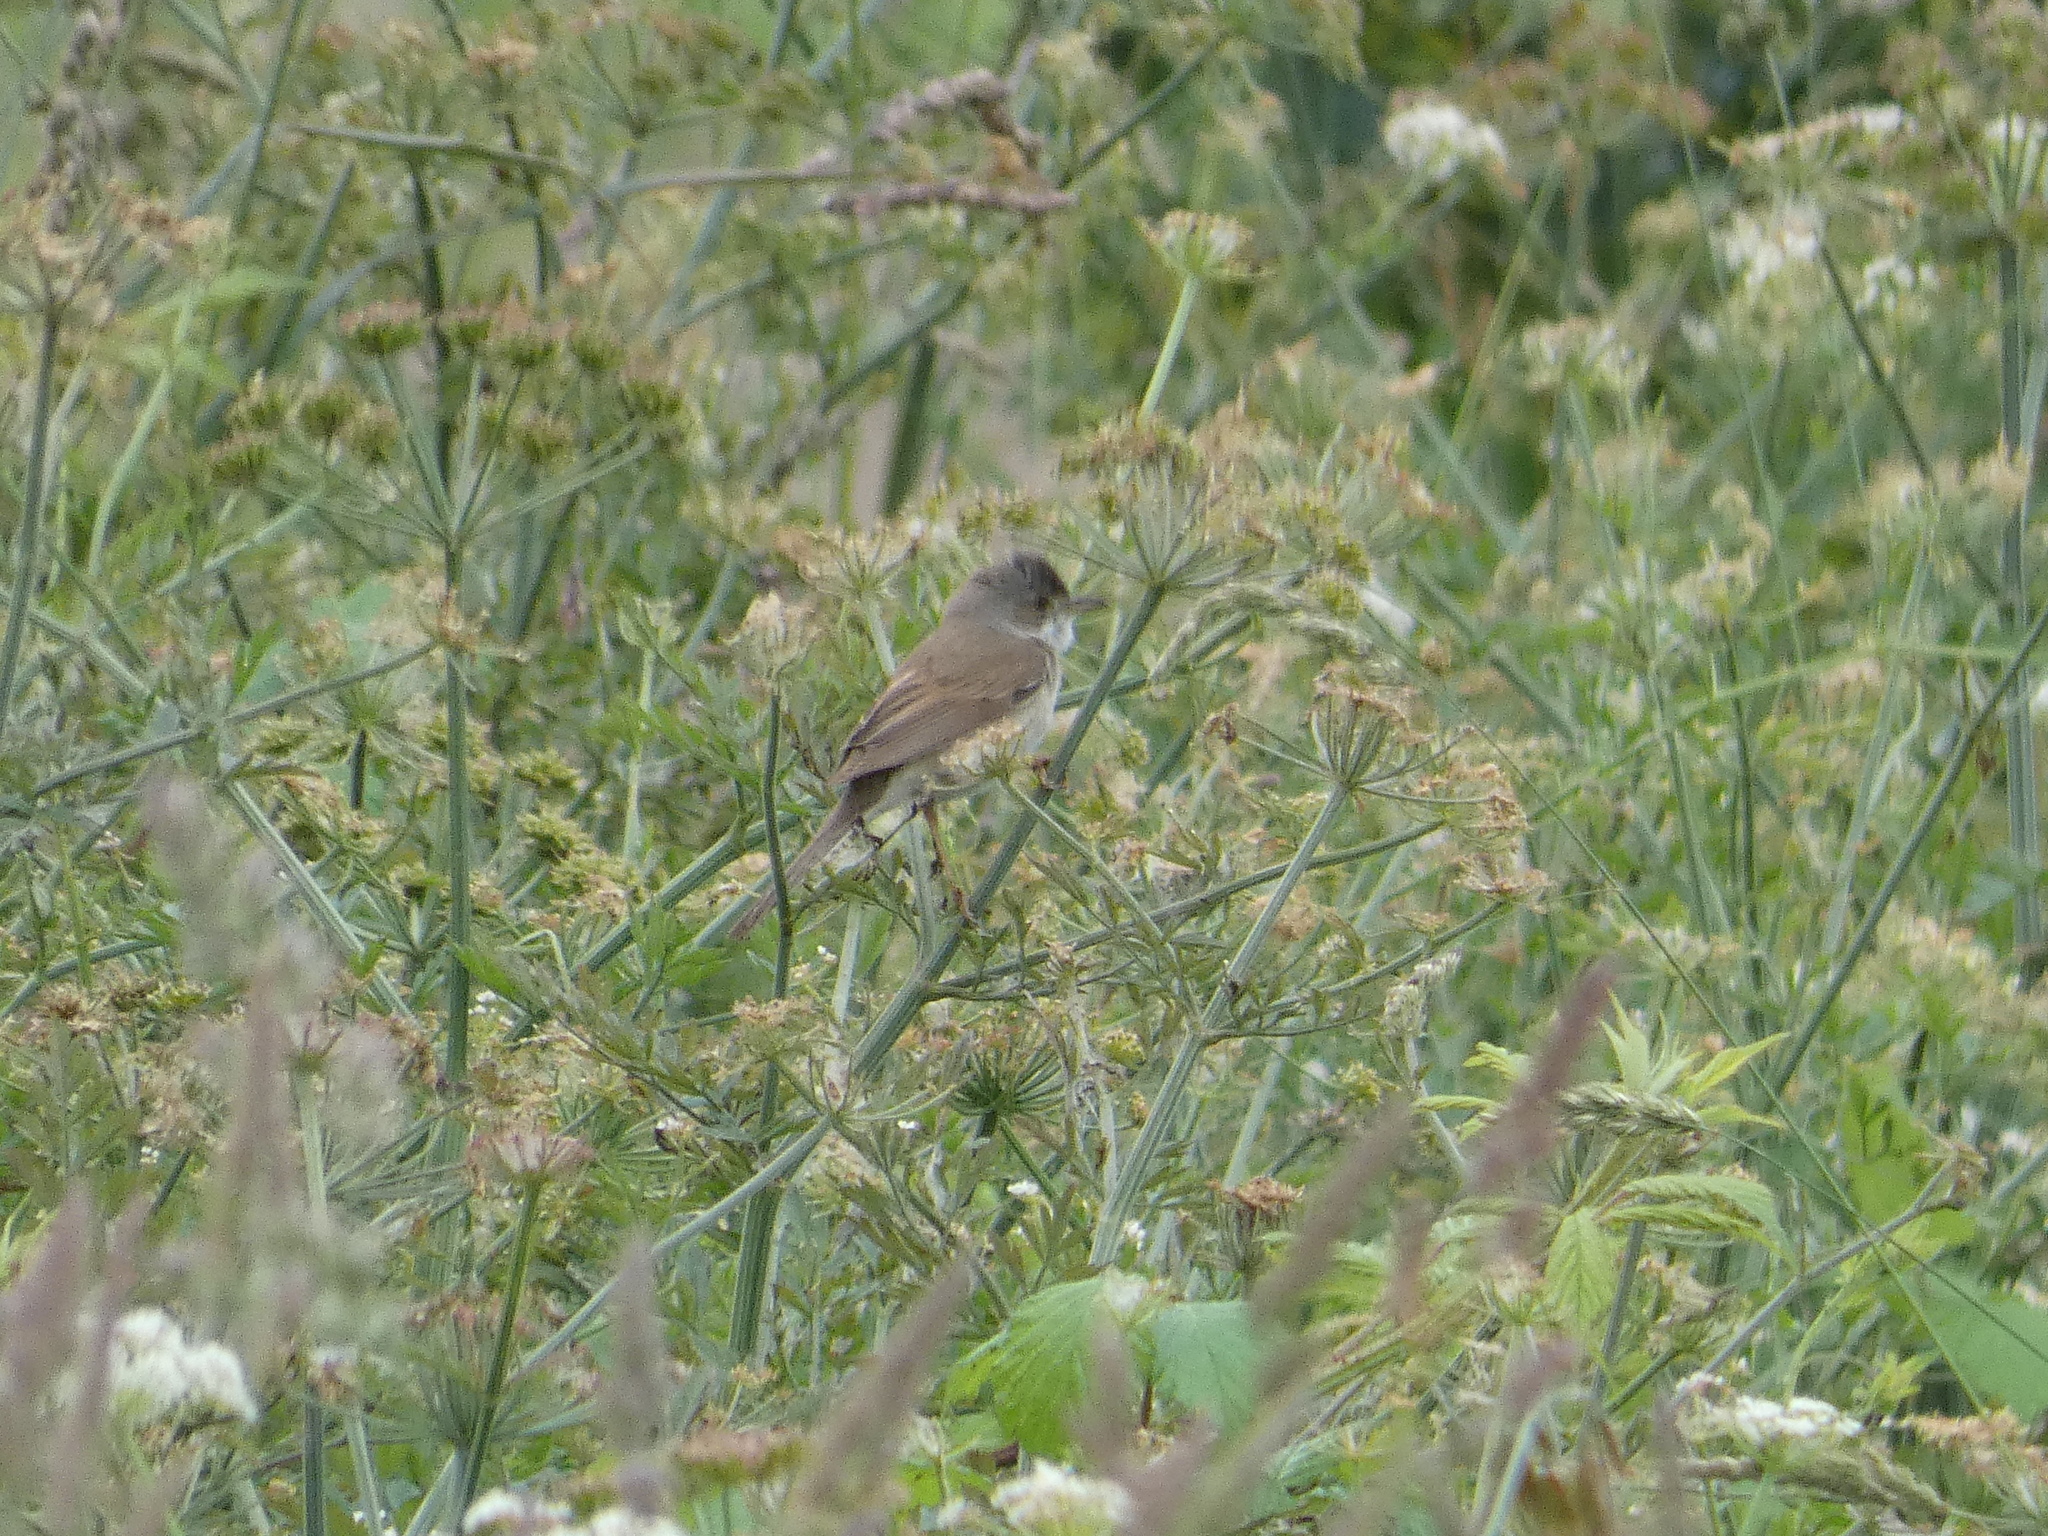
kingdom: Animalia
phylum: Chordata
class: Aves
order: Passeriformes
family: Sylviidae
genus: Sylvia
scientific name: Sylvia communis
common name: Common whitethroat
